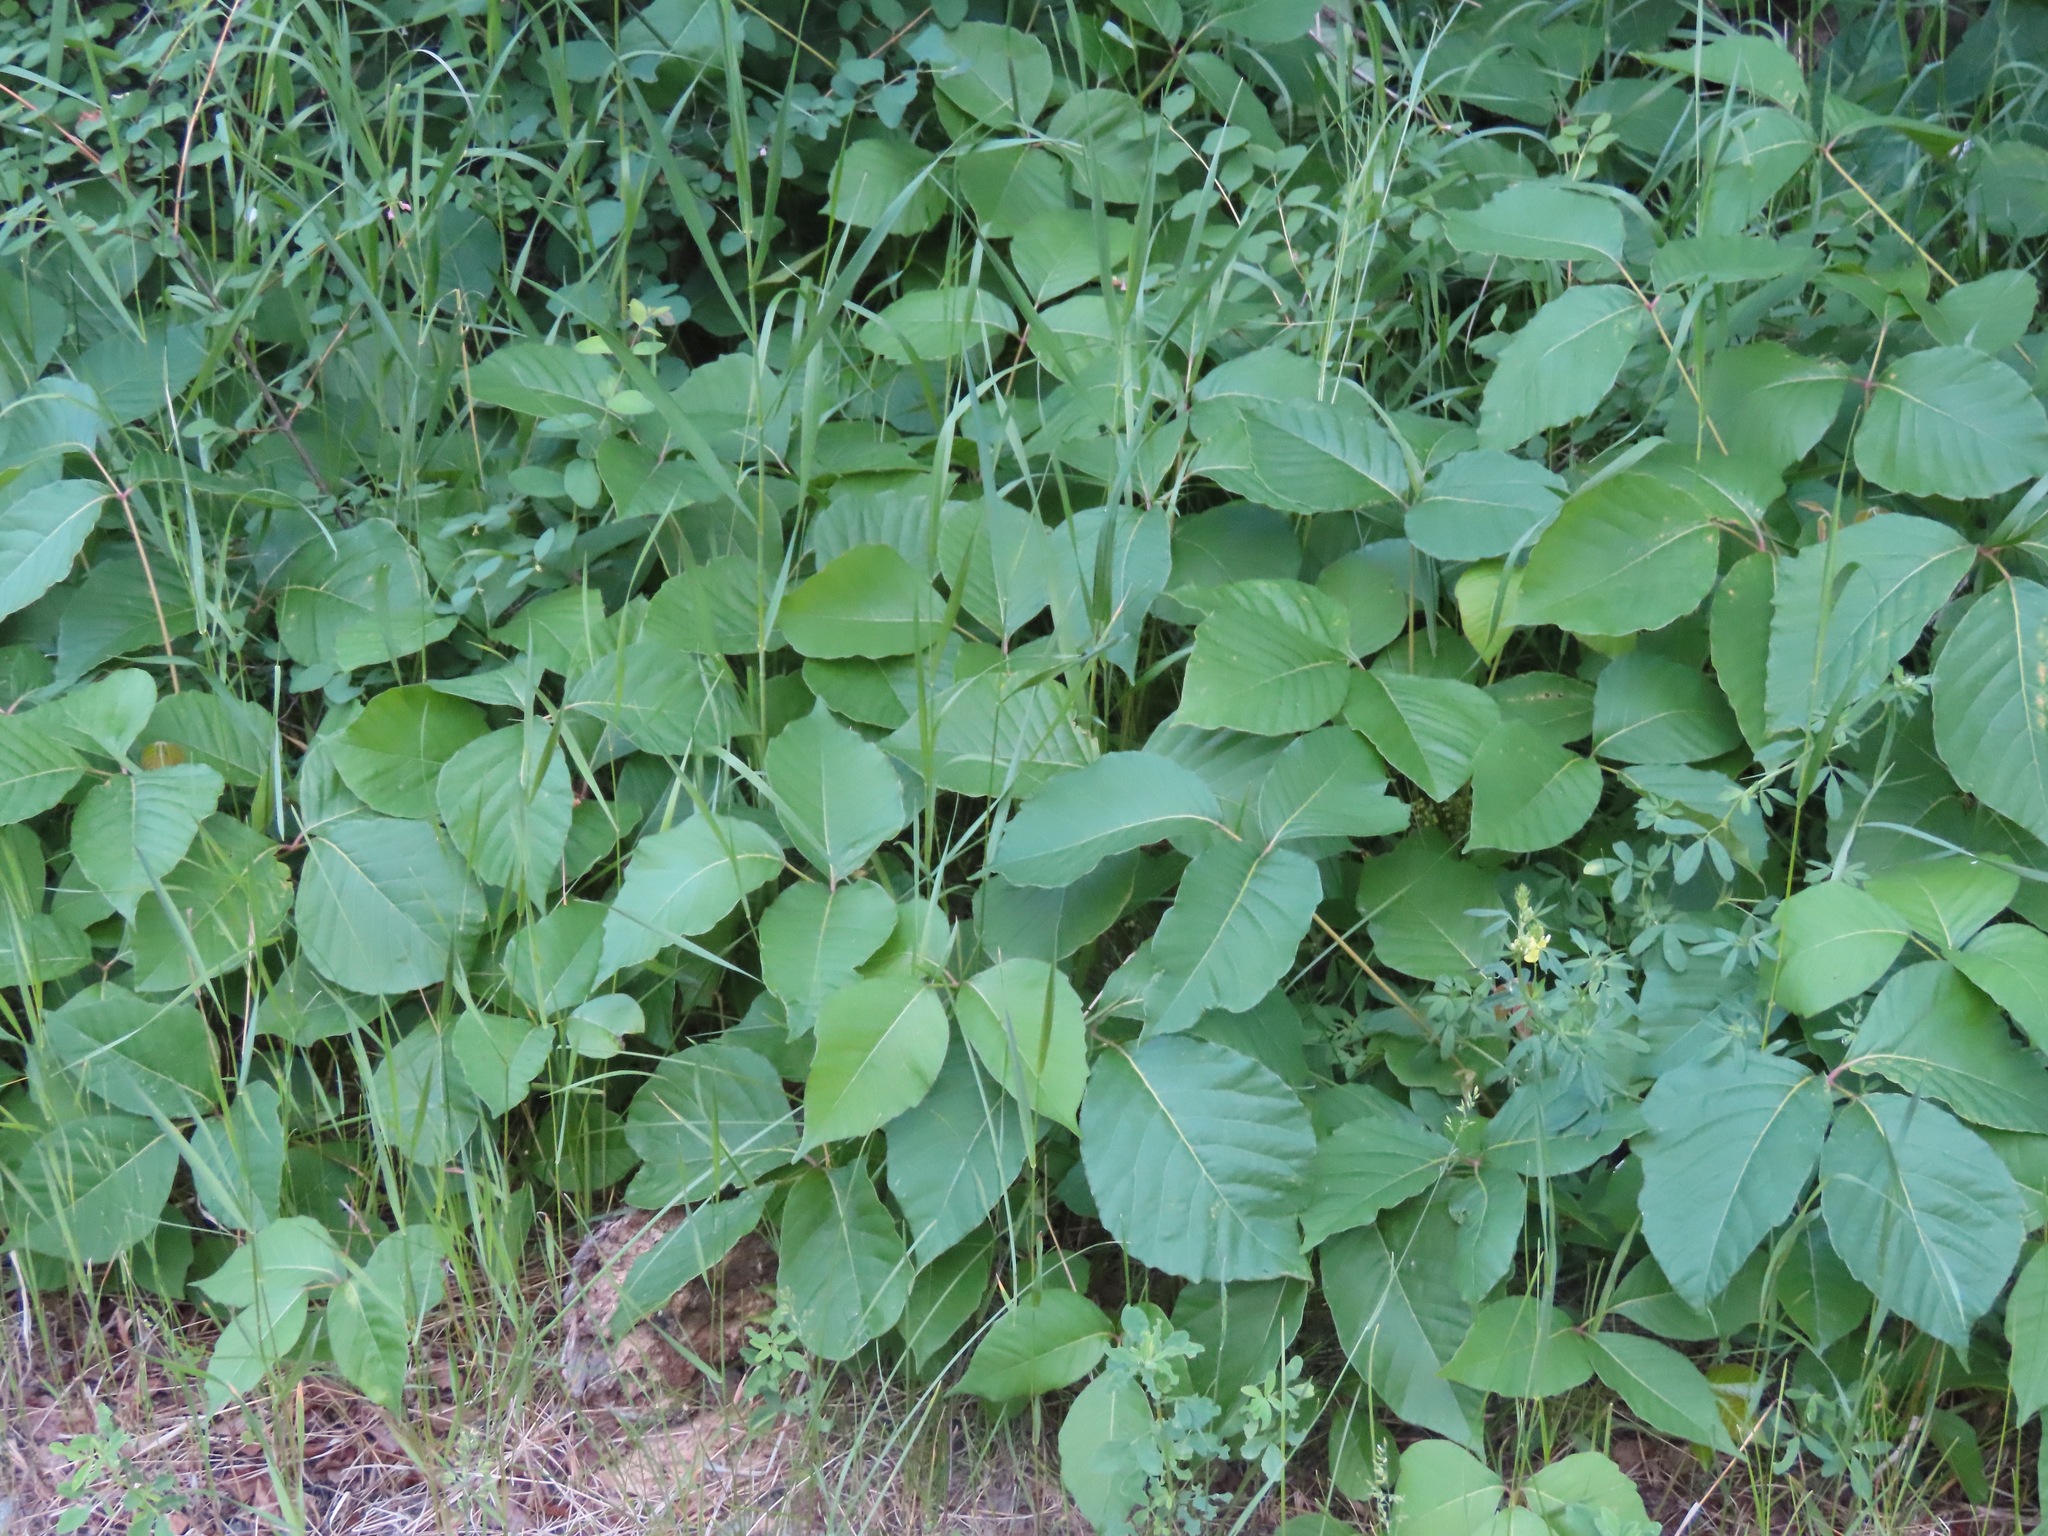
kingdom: Plantae
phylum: Tracheophyta
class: Magnoliopsida
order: Sapindales
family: Anacardiaceae
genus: Toxicodendron
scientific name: Toxicodendron rydbergii
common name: Rydberg's poison-ivy
